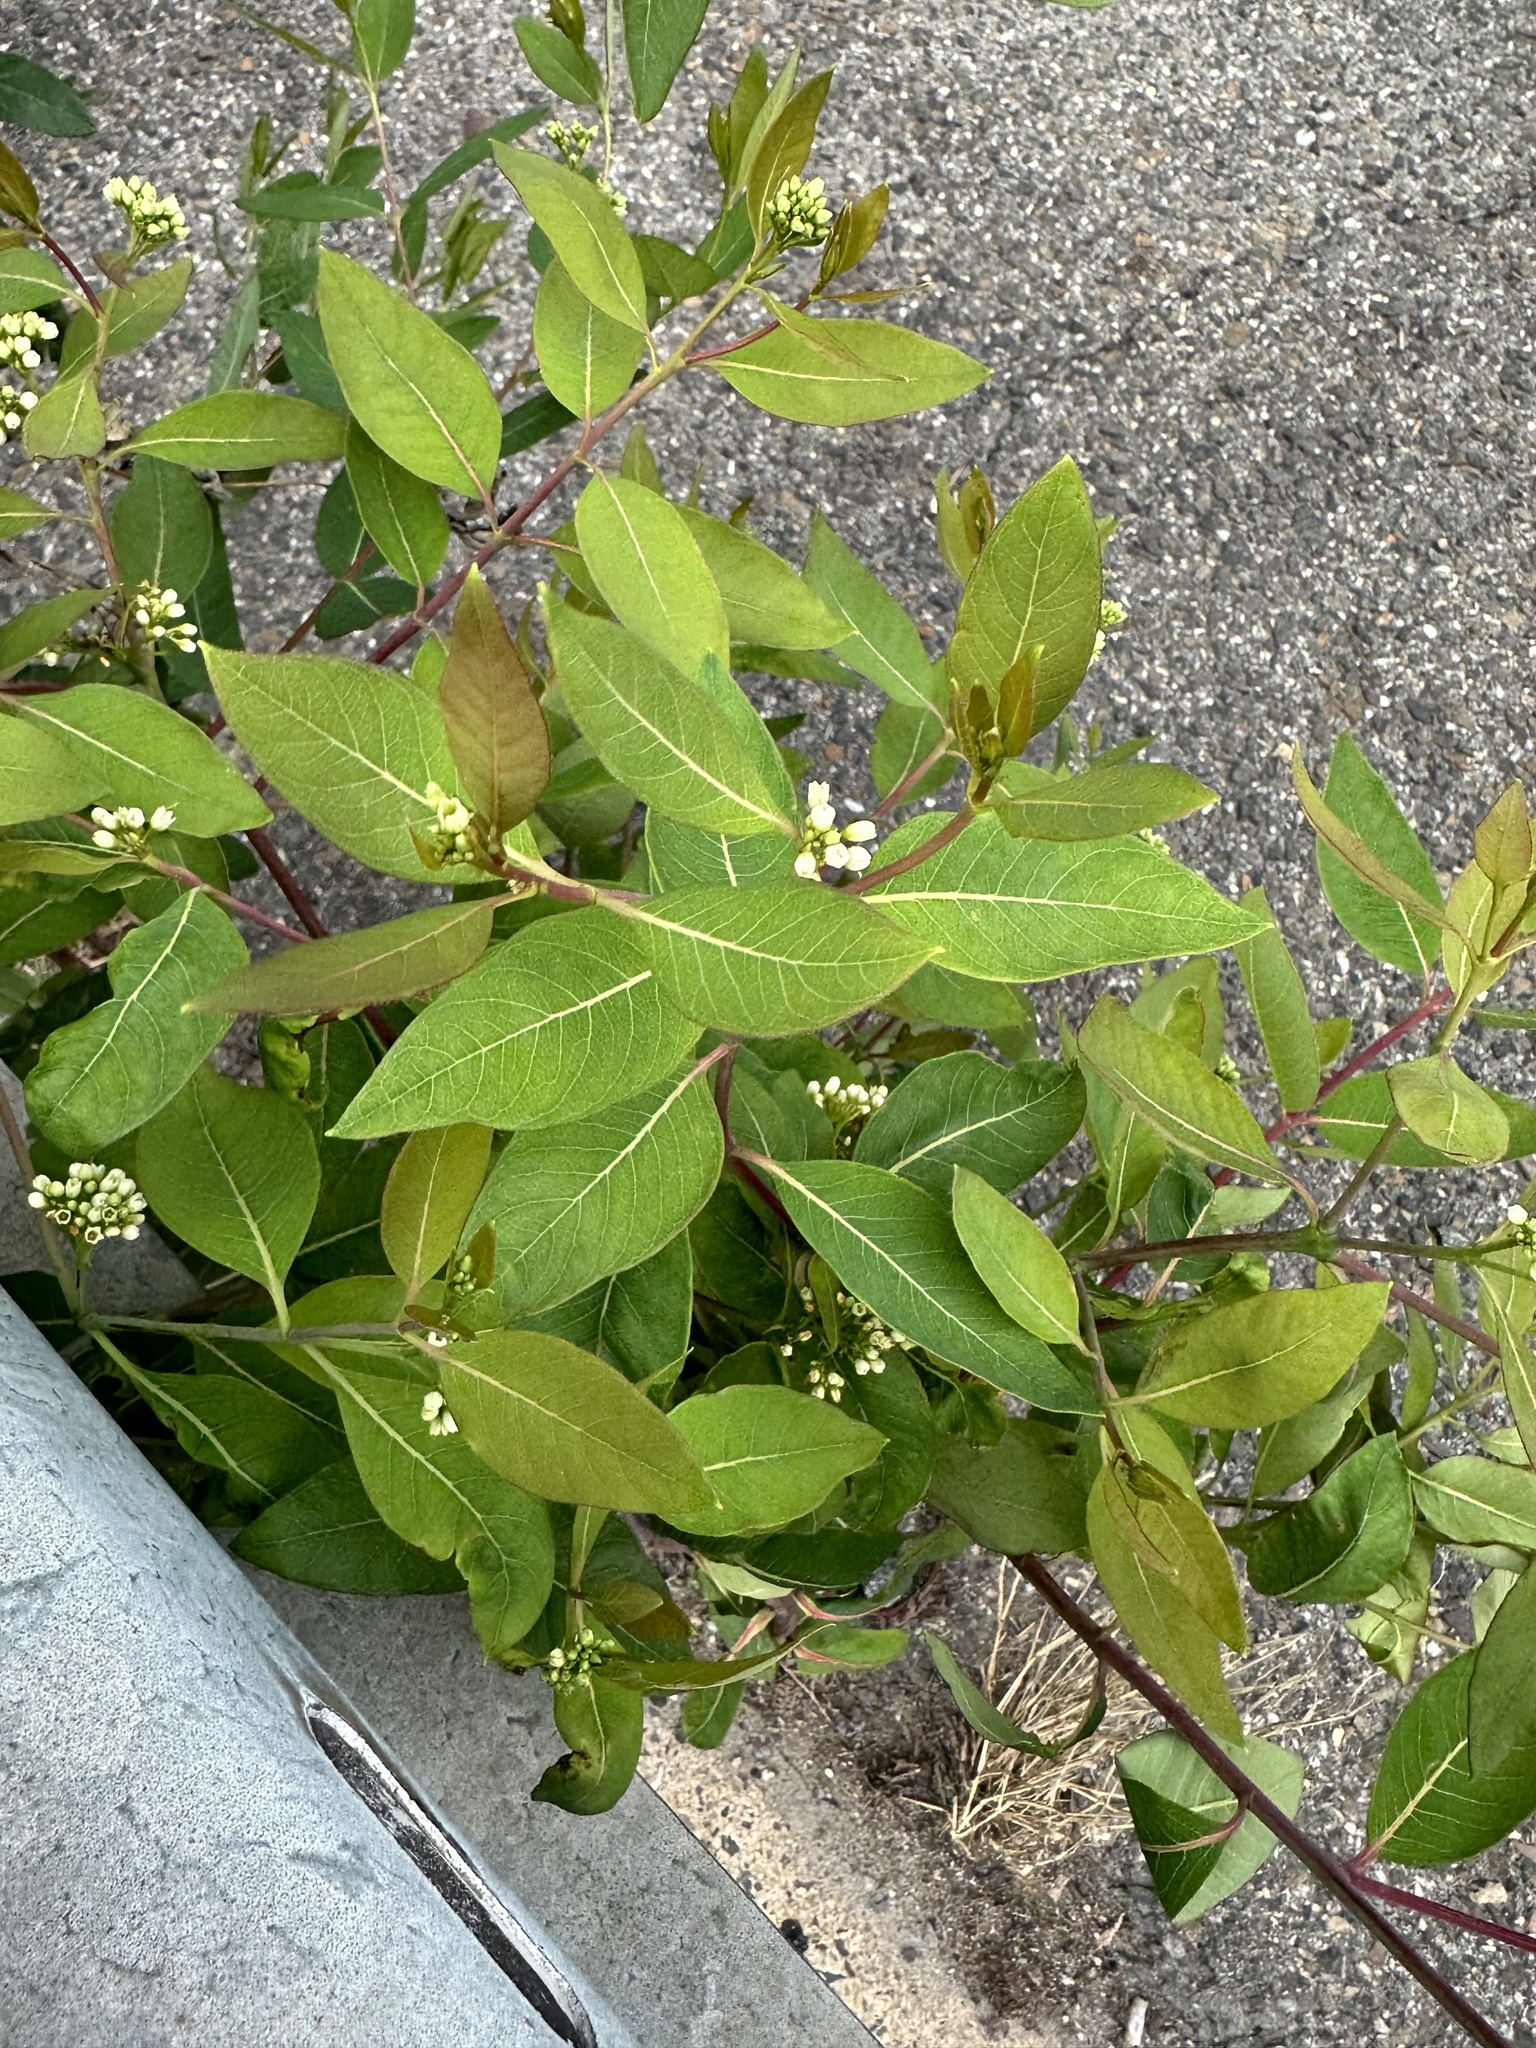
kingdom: Plantae
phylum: Tracheophyta
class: Magnoliopsida
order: Gentianales
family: Apocynaceae
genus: Apocynum
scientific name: Apocynum cannabinum
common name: Hemp dogbane
